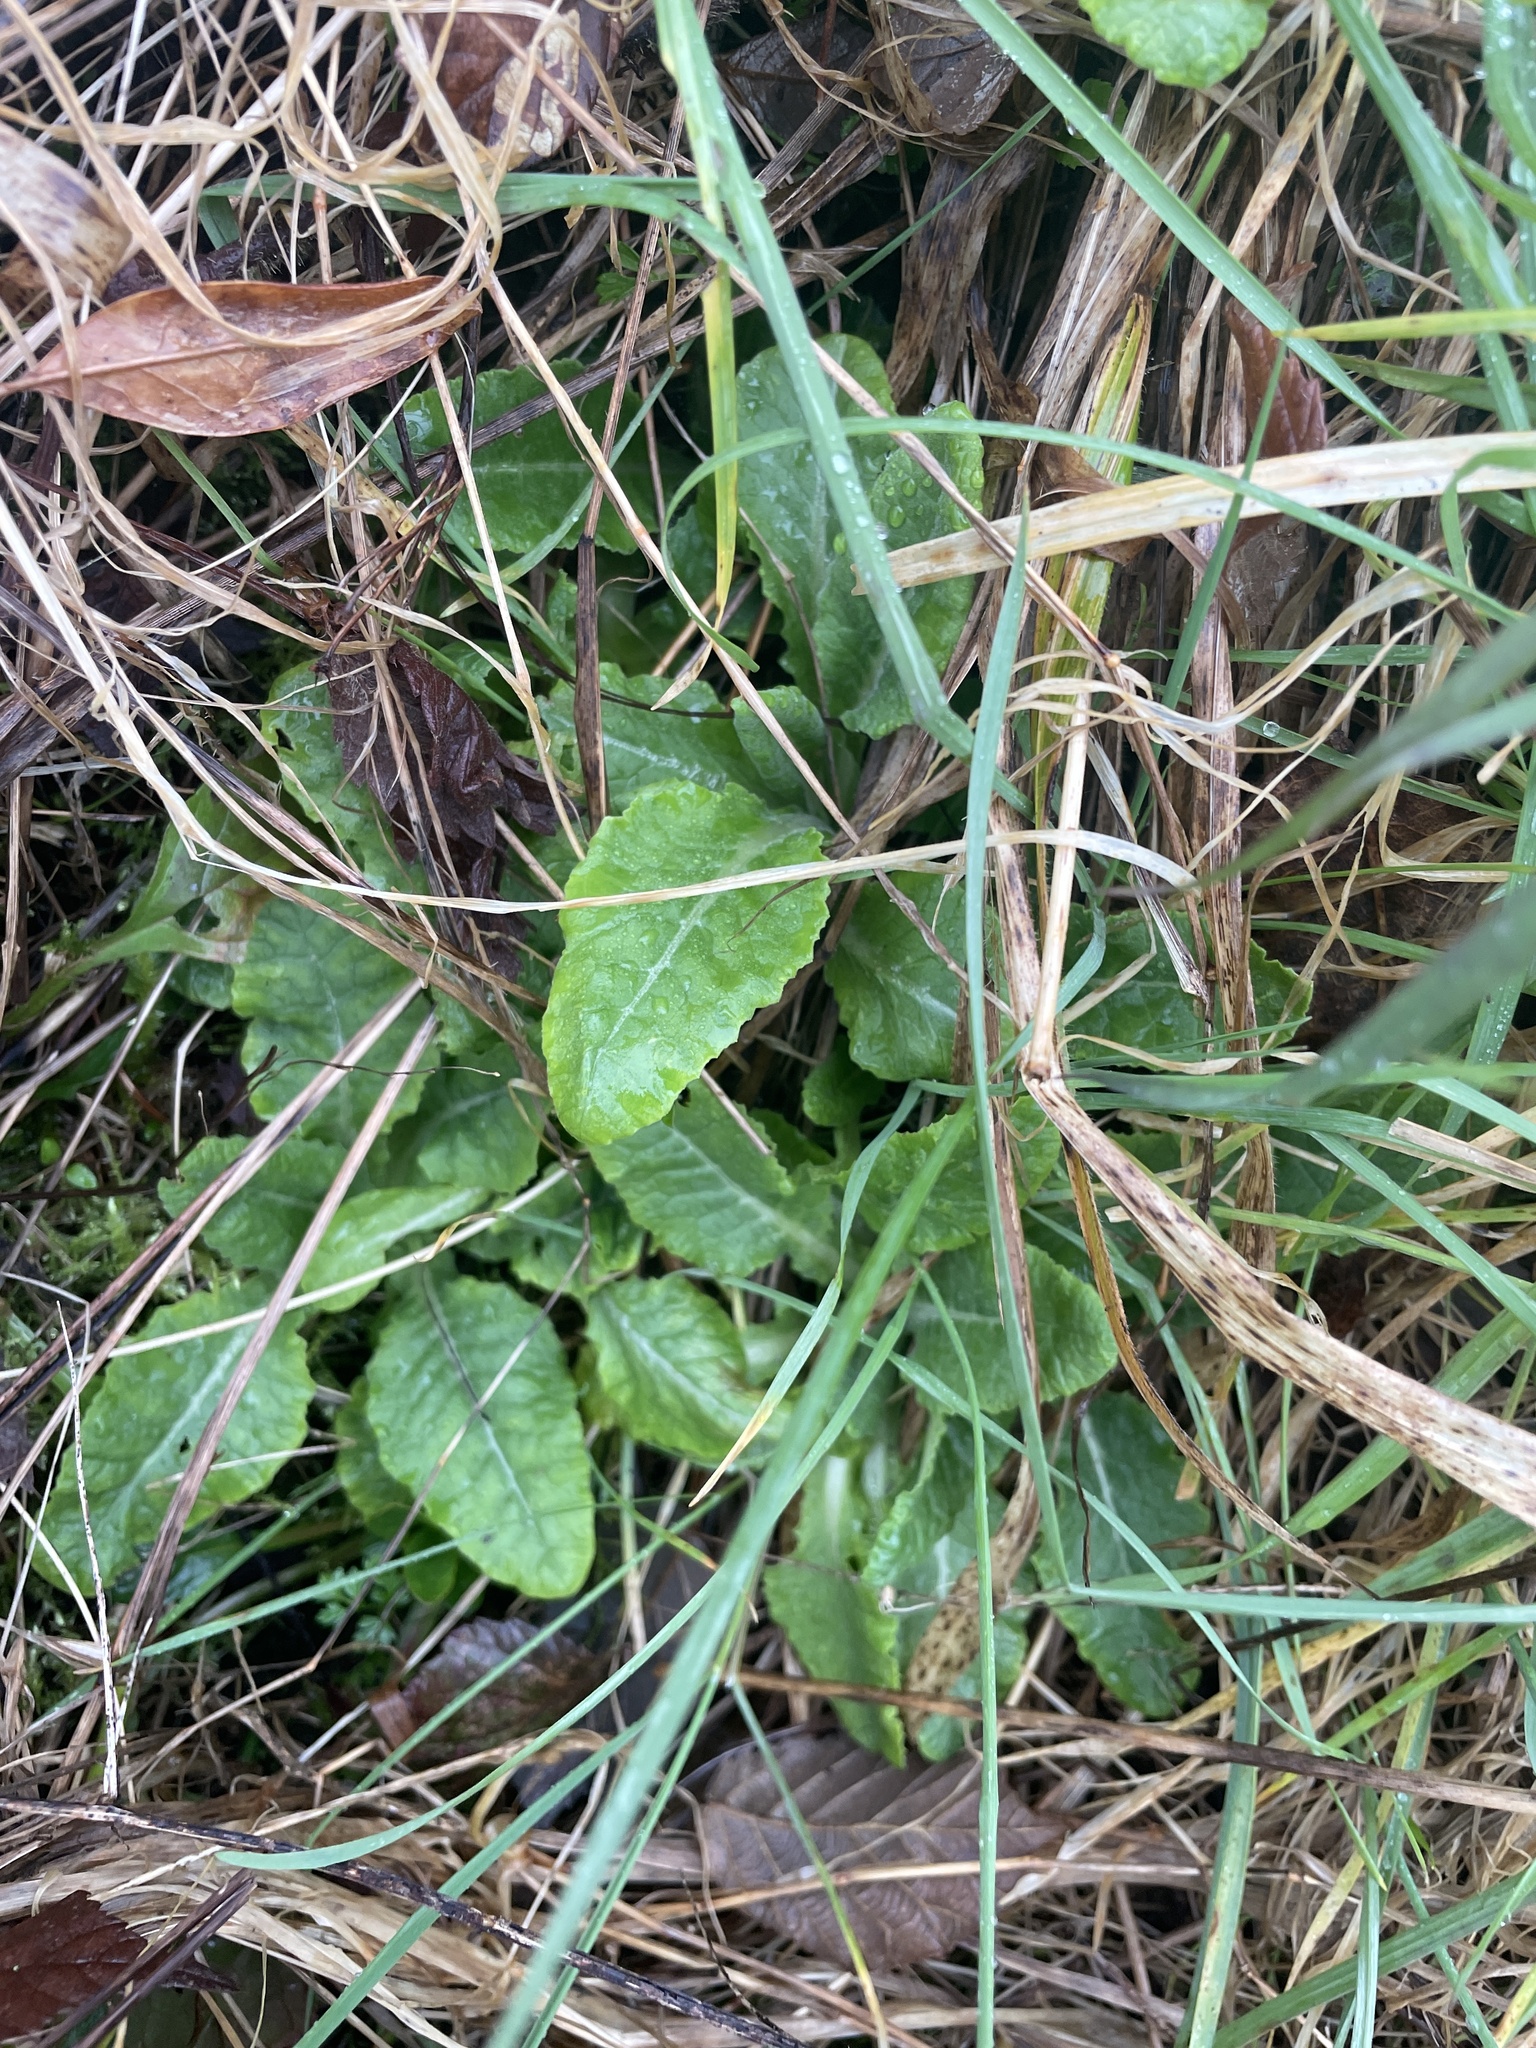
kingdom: Plantae
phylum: Tracheophyta
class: Magnoliopsida
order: Ericales
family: Primulaceae
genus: Primula
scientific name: Primula veris
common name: Cowslip
